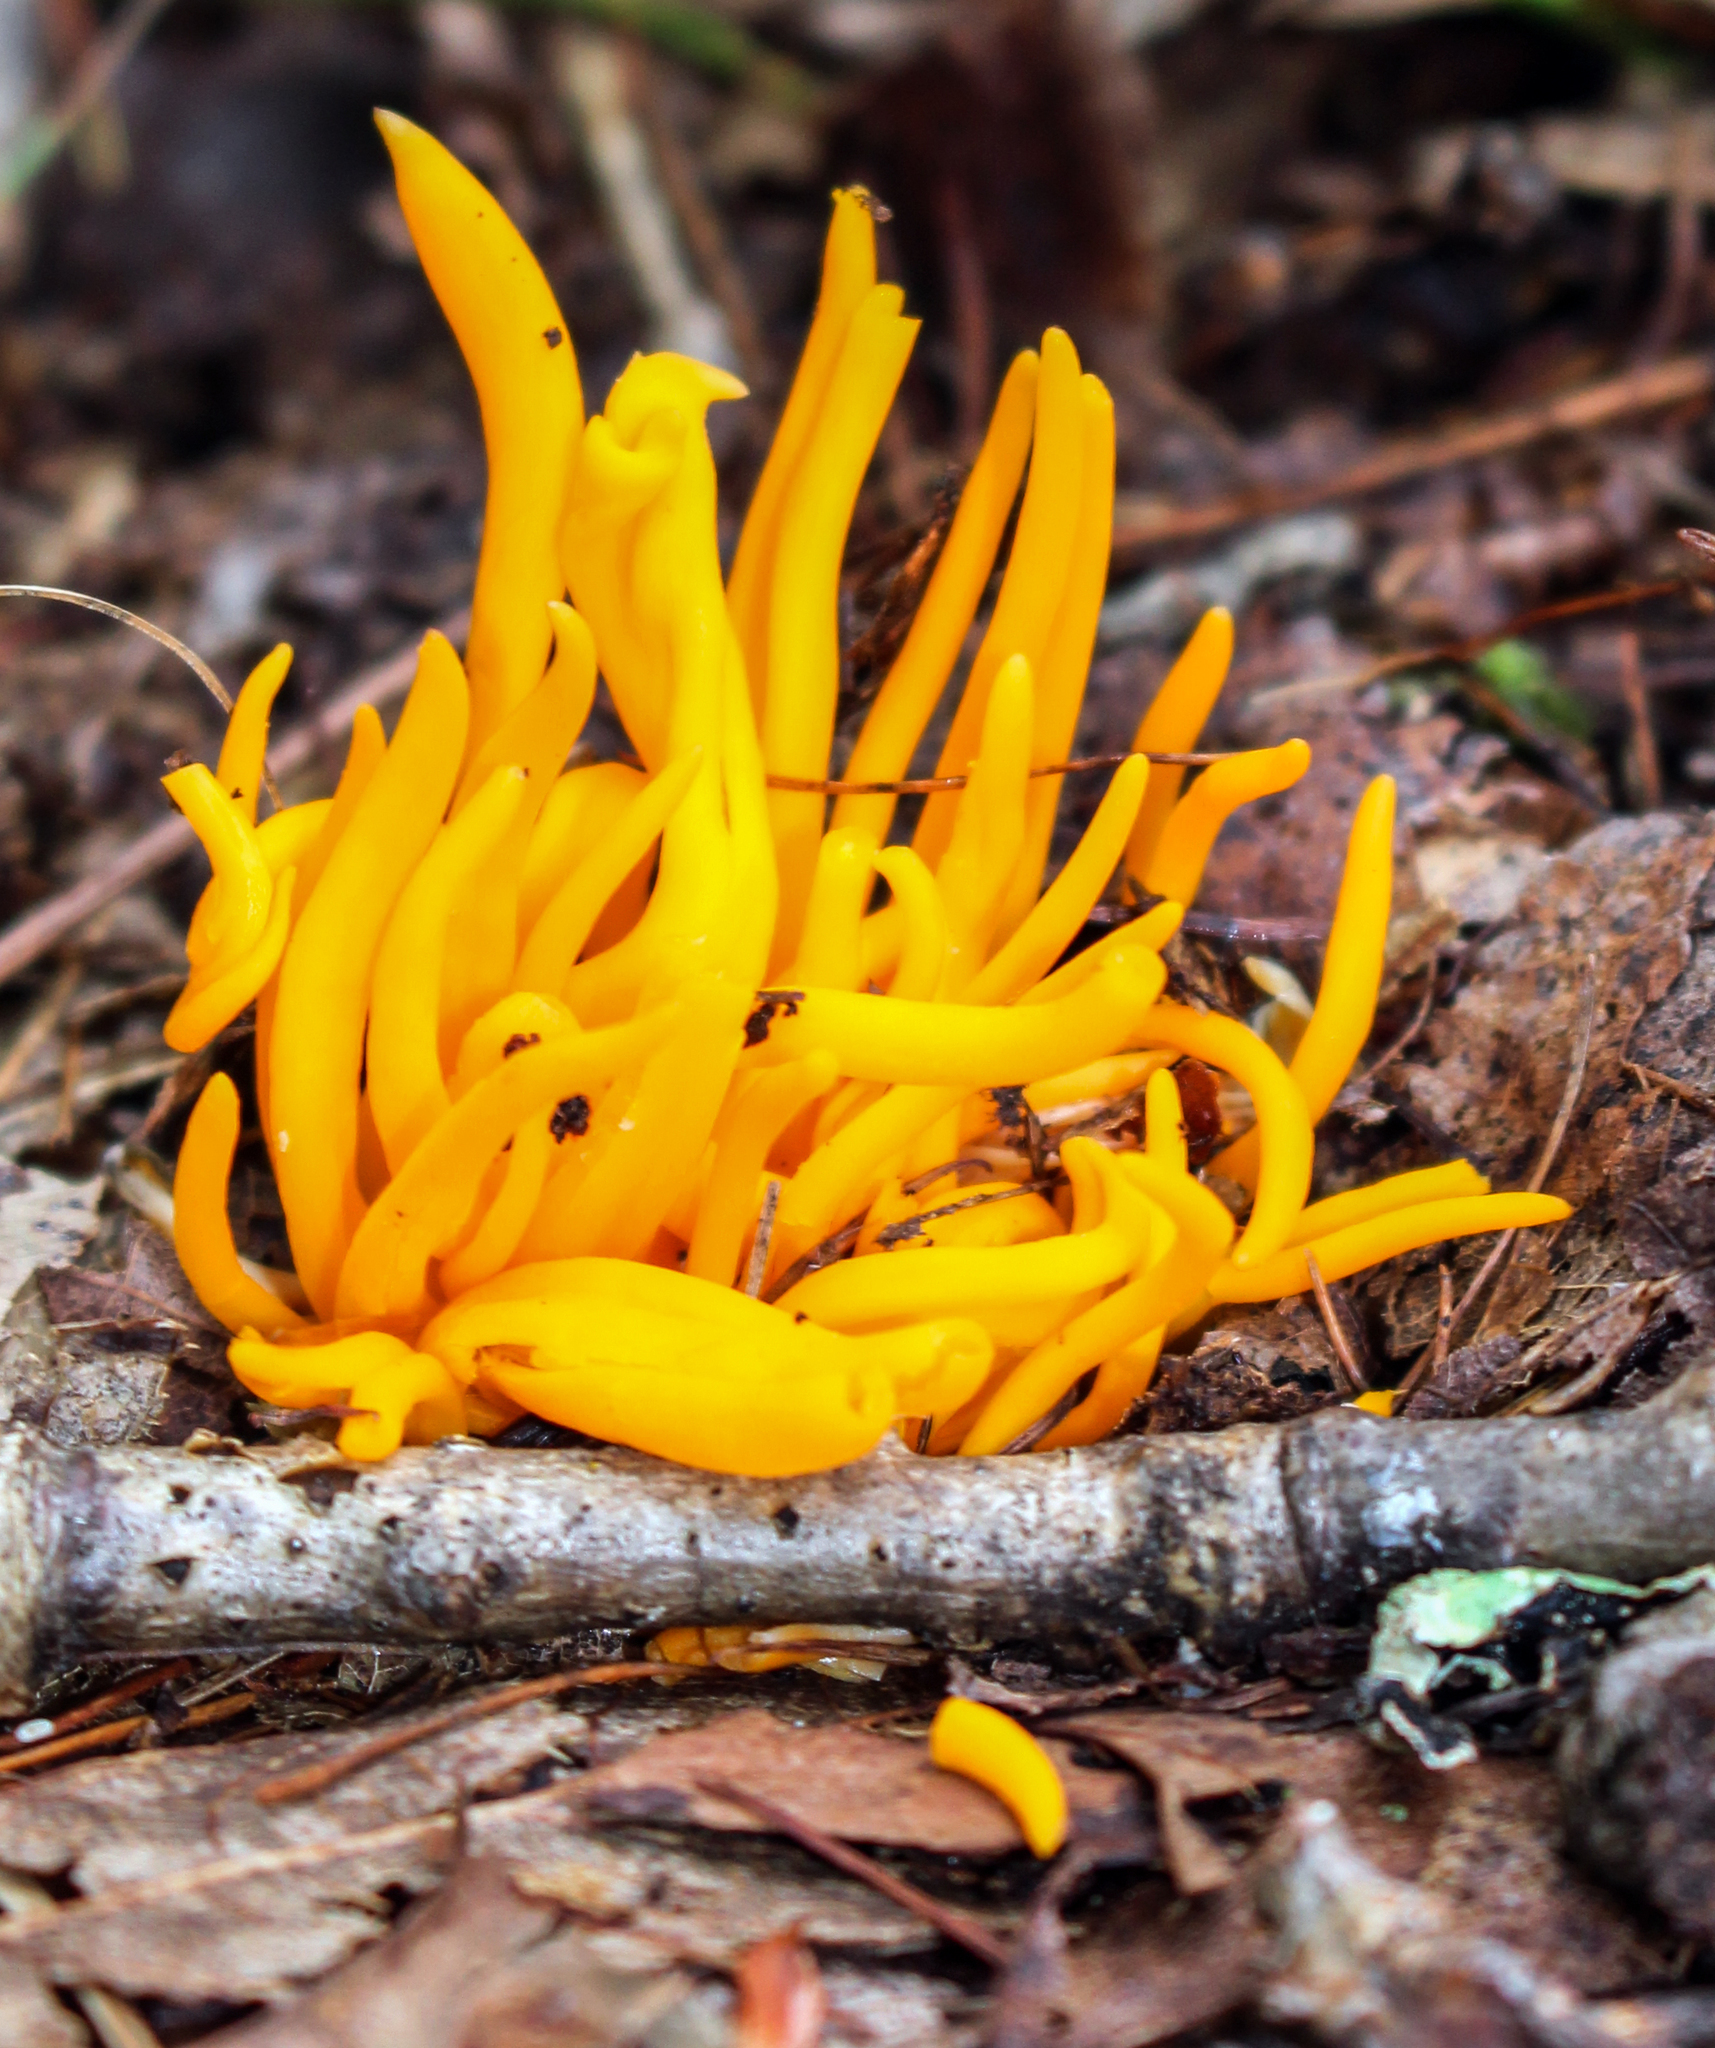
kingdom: Fungi
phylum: Basidiomycota
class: Agaricomycetes
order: Agaricales
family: Clavariaceae
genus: Clavulinopsis
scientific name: Clavulinopsis fusiformis
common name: Golden spindles
